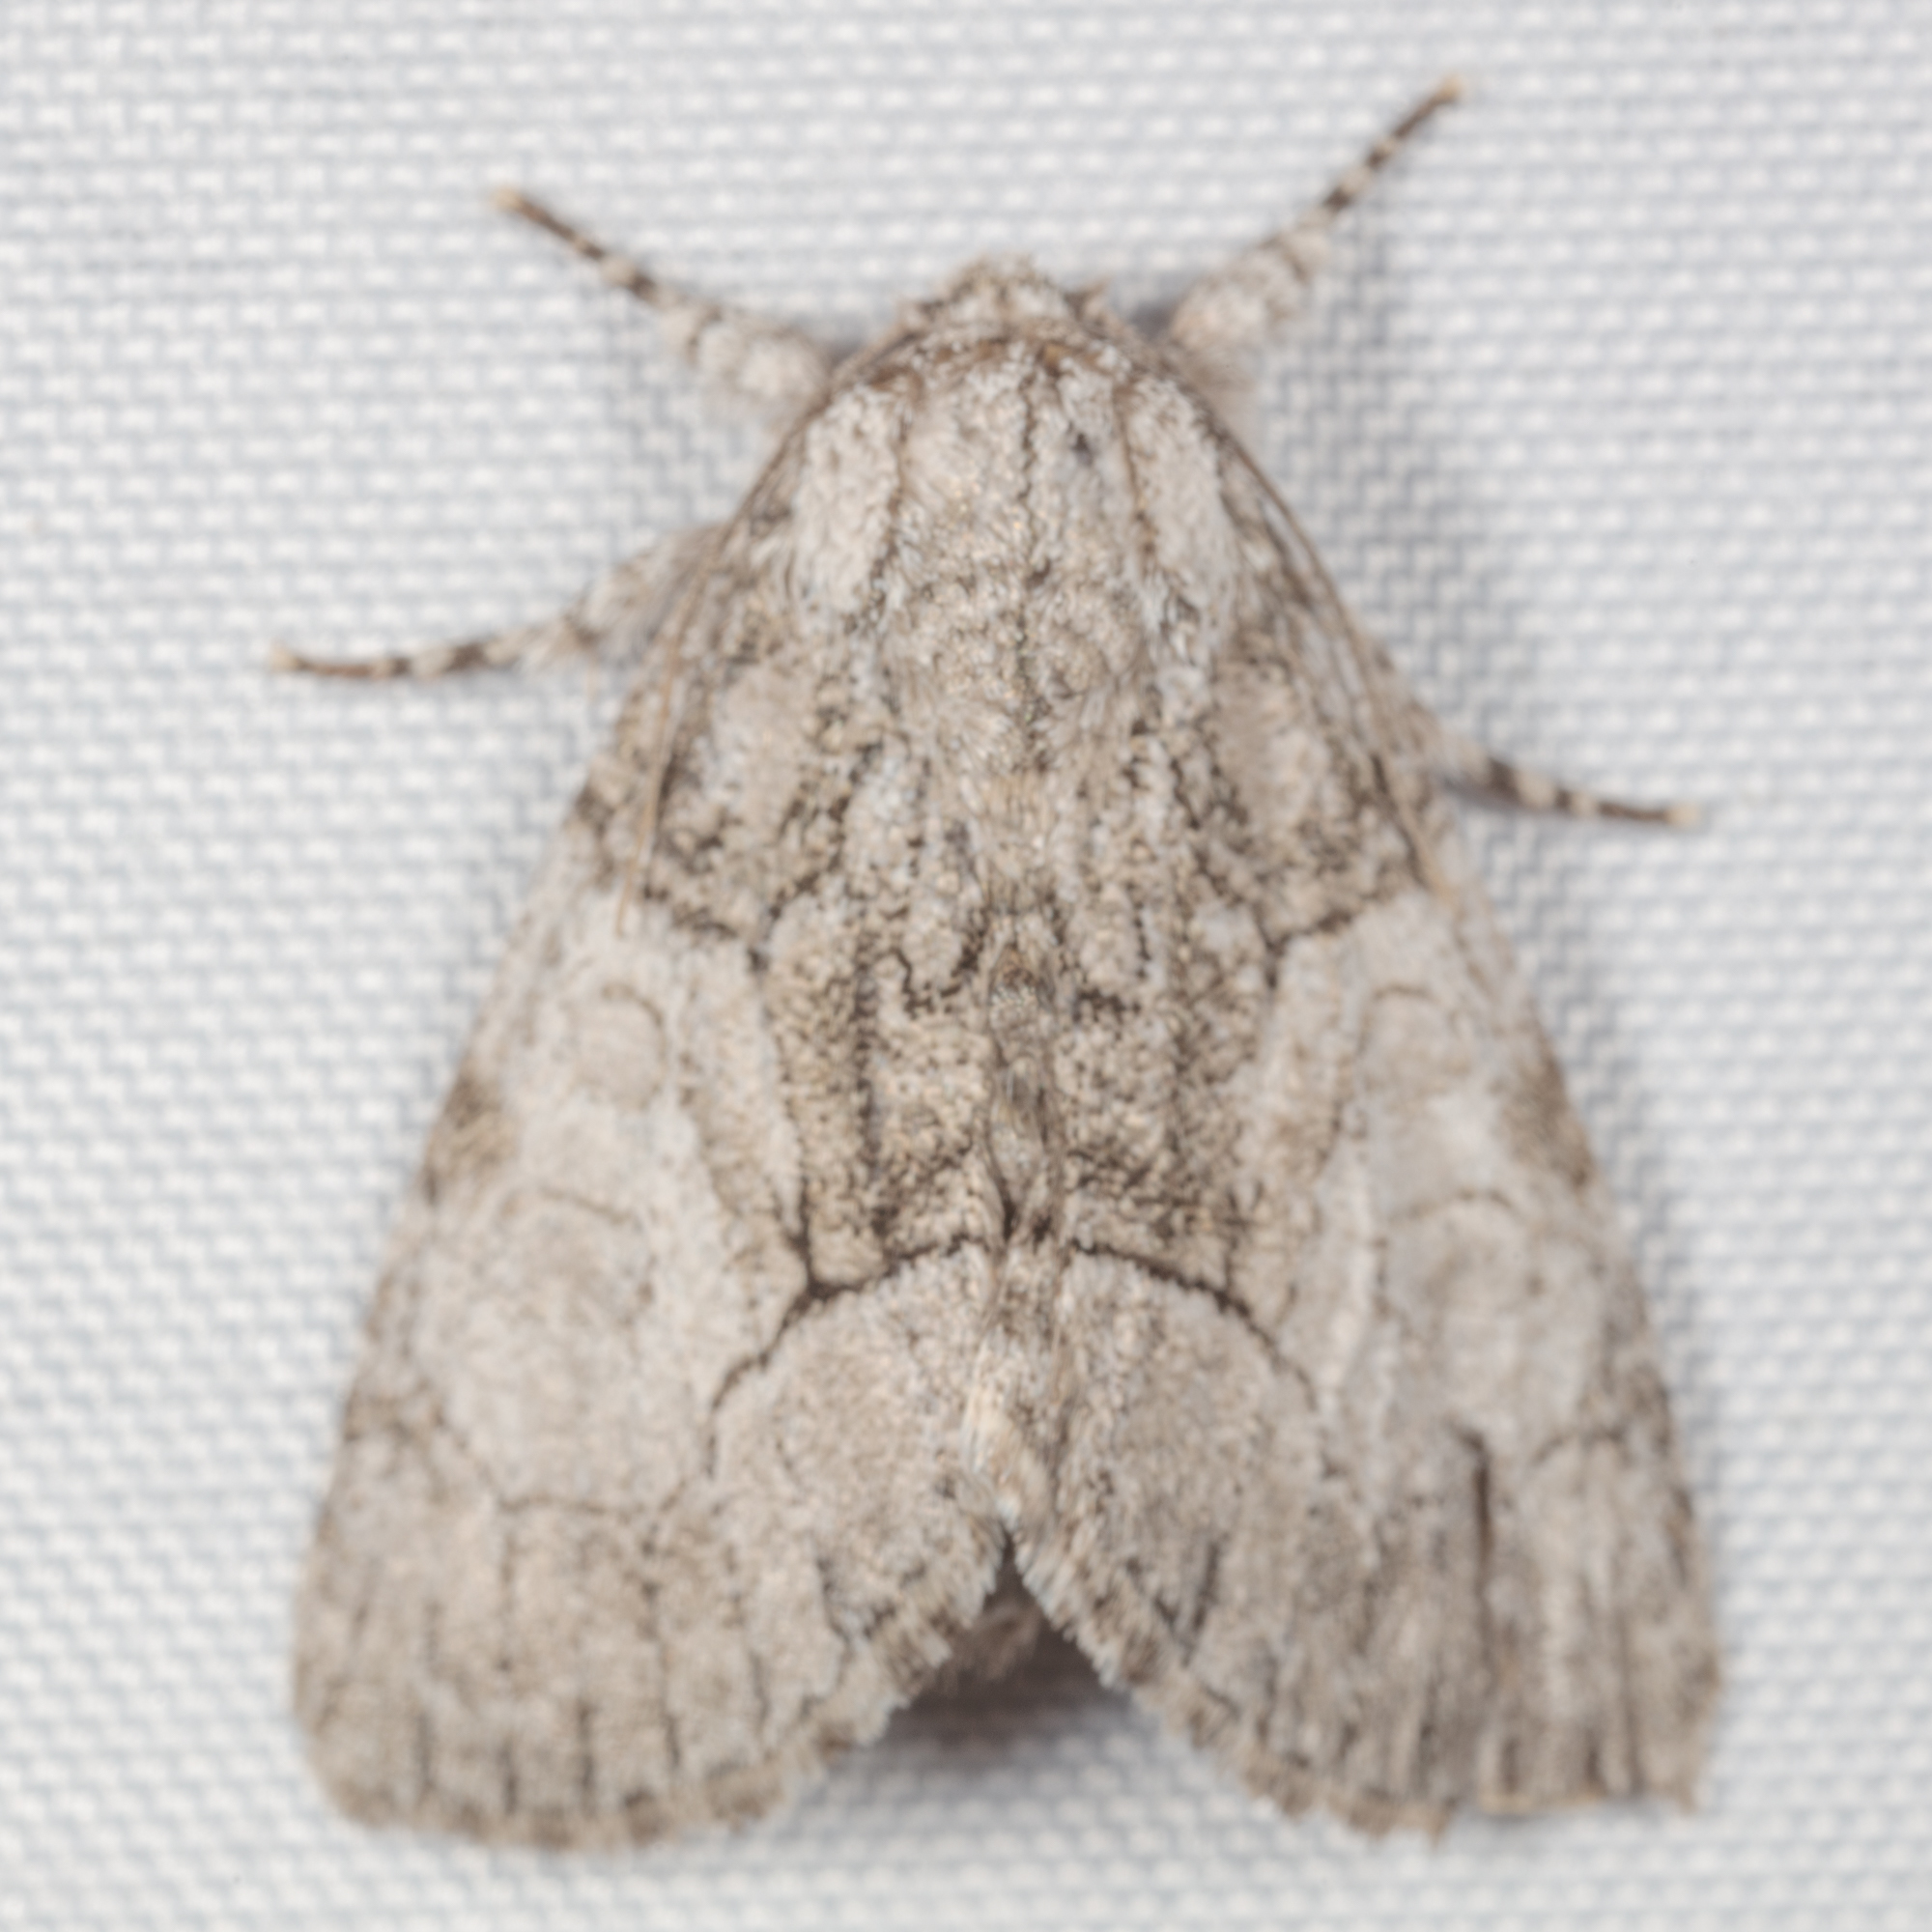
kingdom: Animalia
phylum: Arthropoda
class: Insecta
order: Lepidoptera
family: Noctuidae
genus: Raphia
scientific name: Raphia frater
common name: Brother
